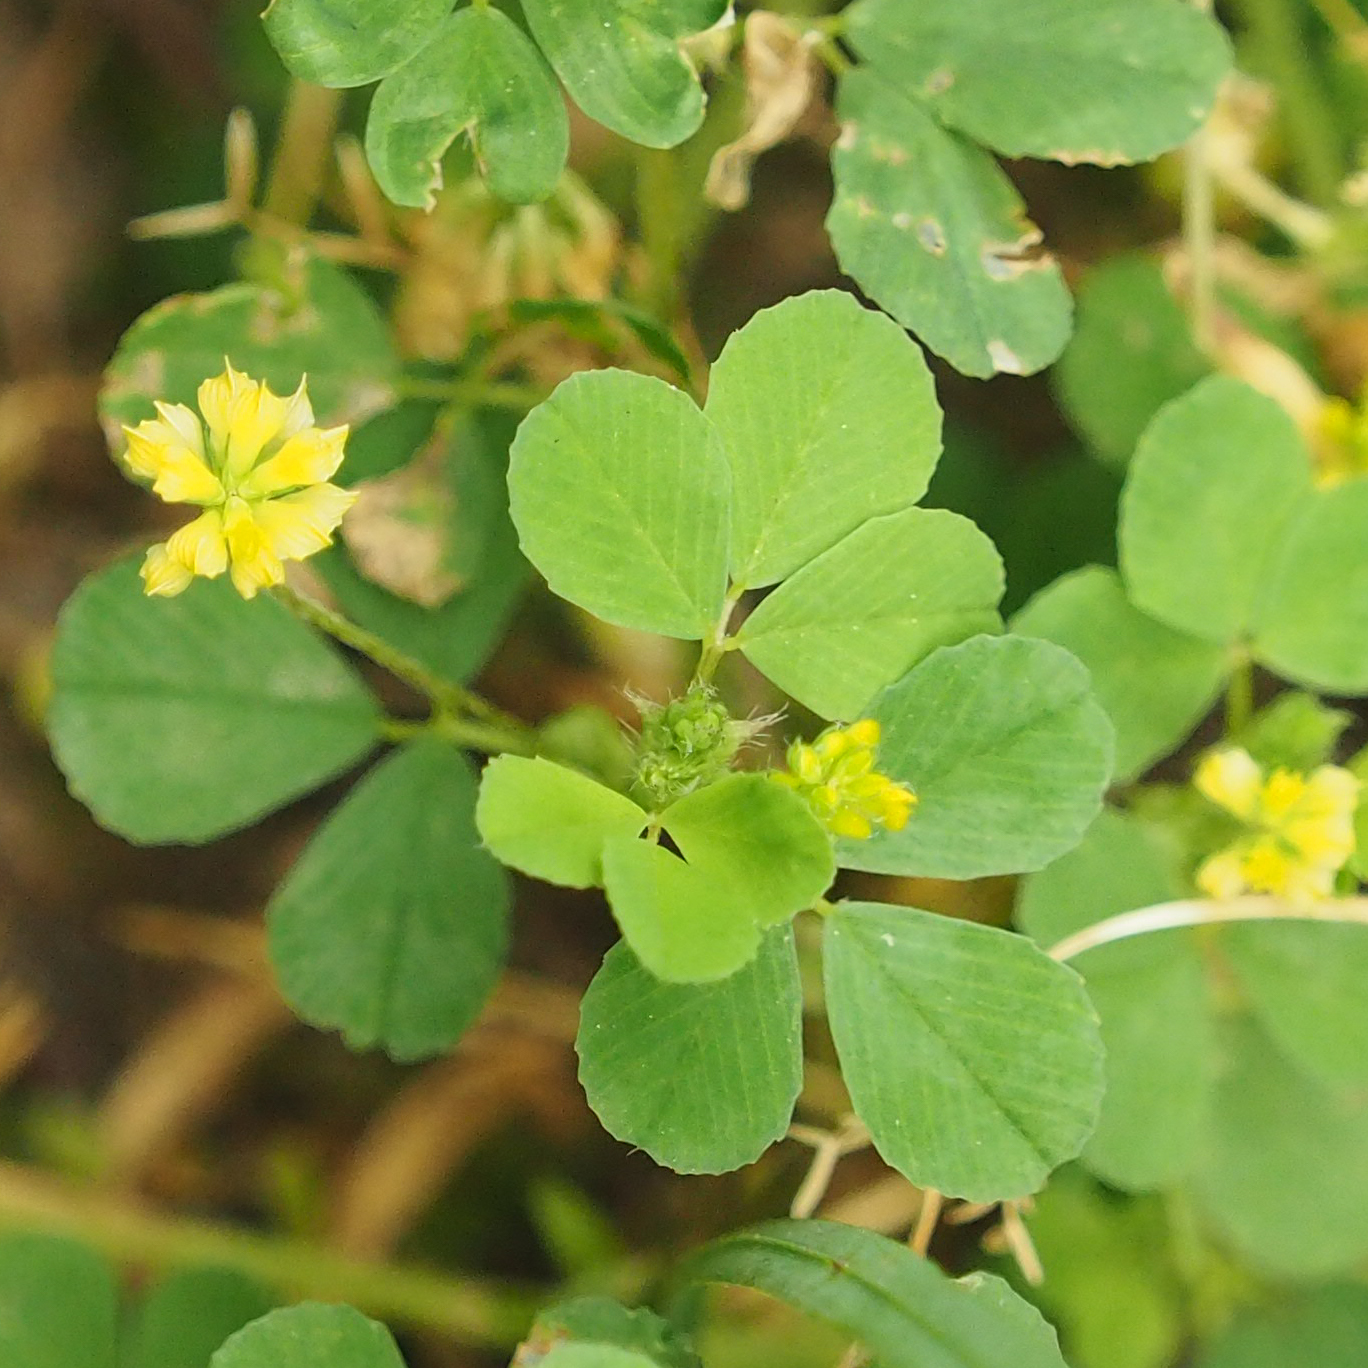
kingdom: Plantae
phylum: Tracheophyta
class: Magnoliopsida
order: Fabales
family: Fabaceae
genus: Trifolium
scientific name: Trifolium dubium
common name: Suckling clover
